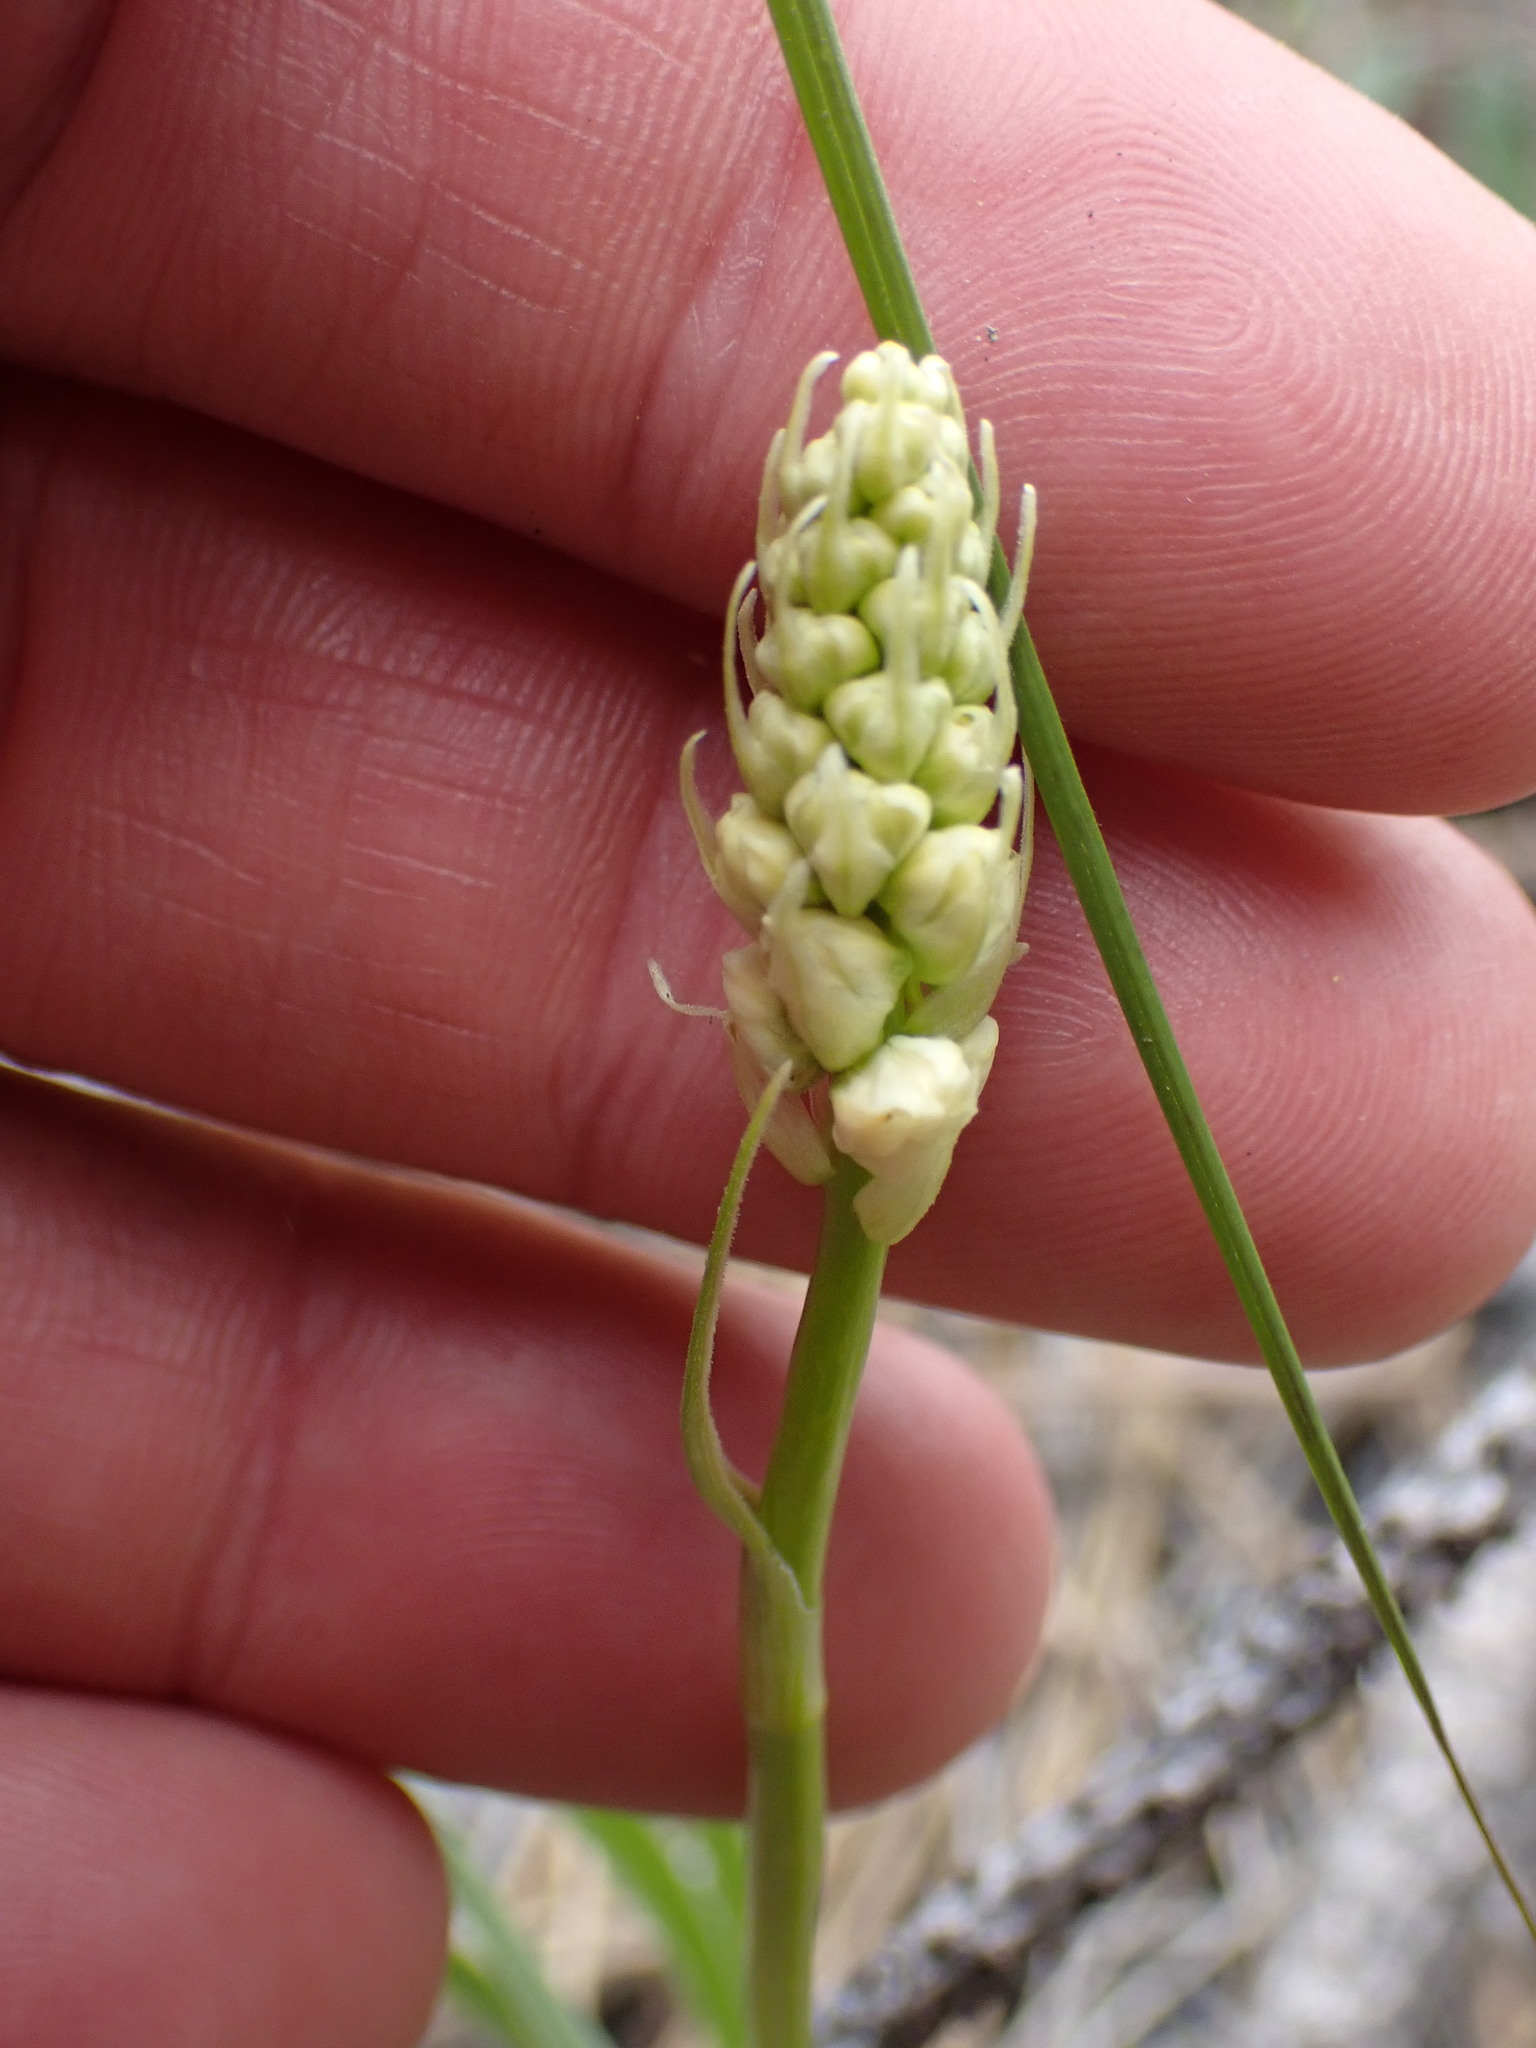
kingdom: Plantae
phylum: Tracheophyta
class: Liliopsida
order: Liliales
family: Melanthiaceae
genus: Toxicoscordion
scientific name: Toxicoscordion venenosum
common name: Meadow death camas
